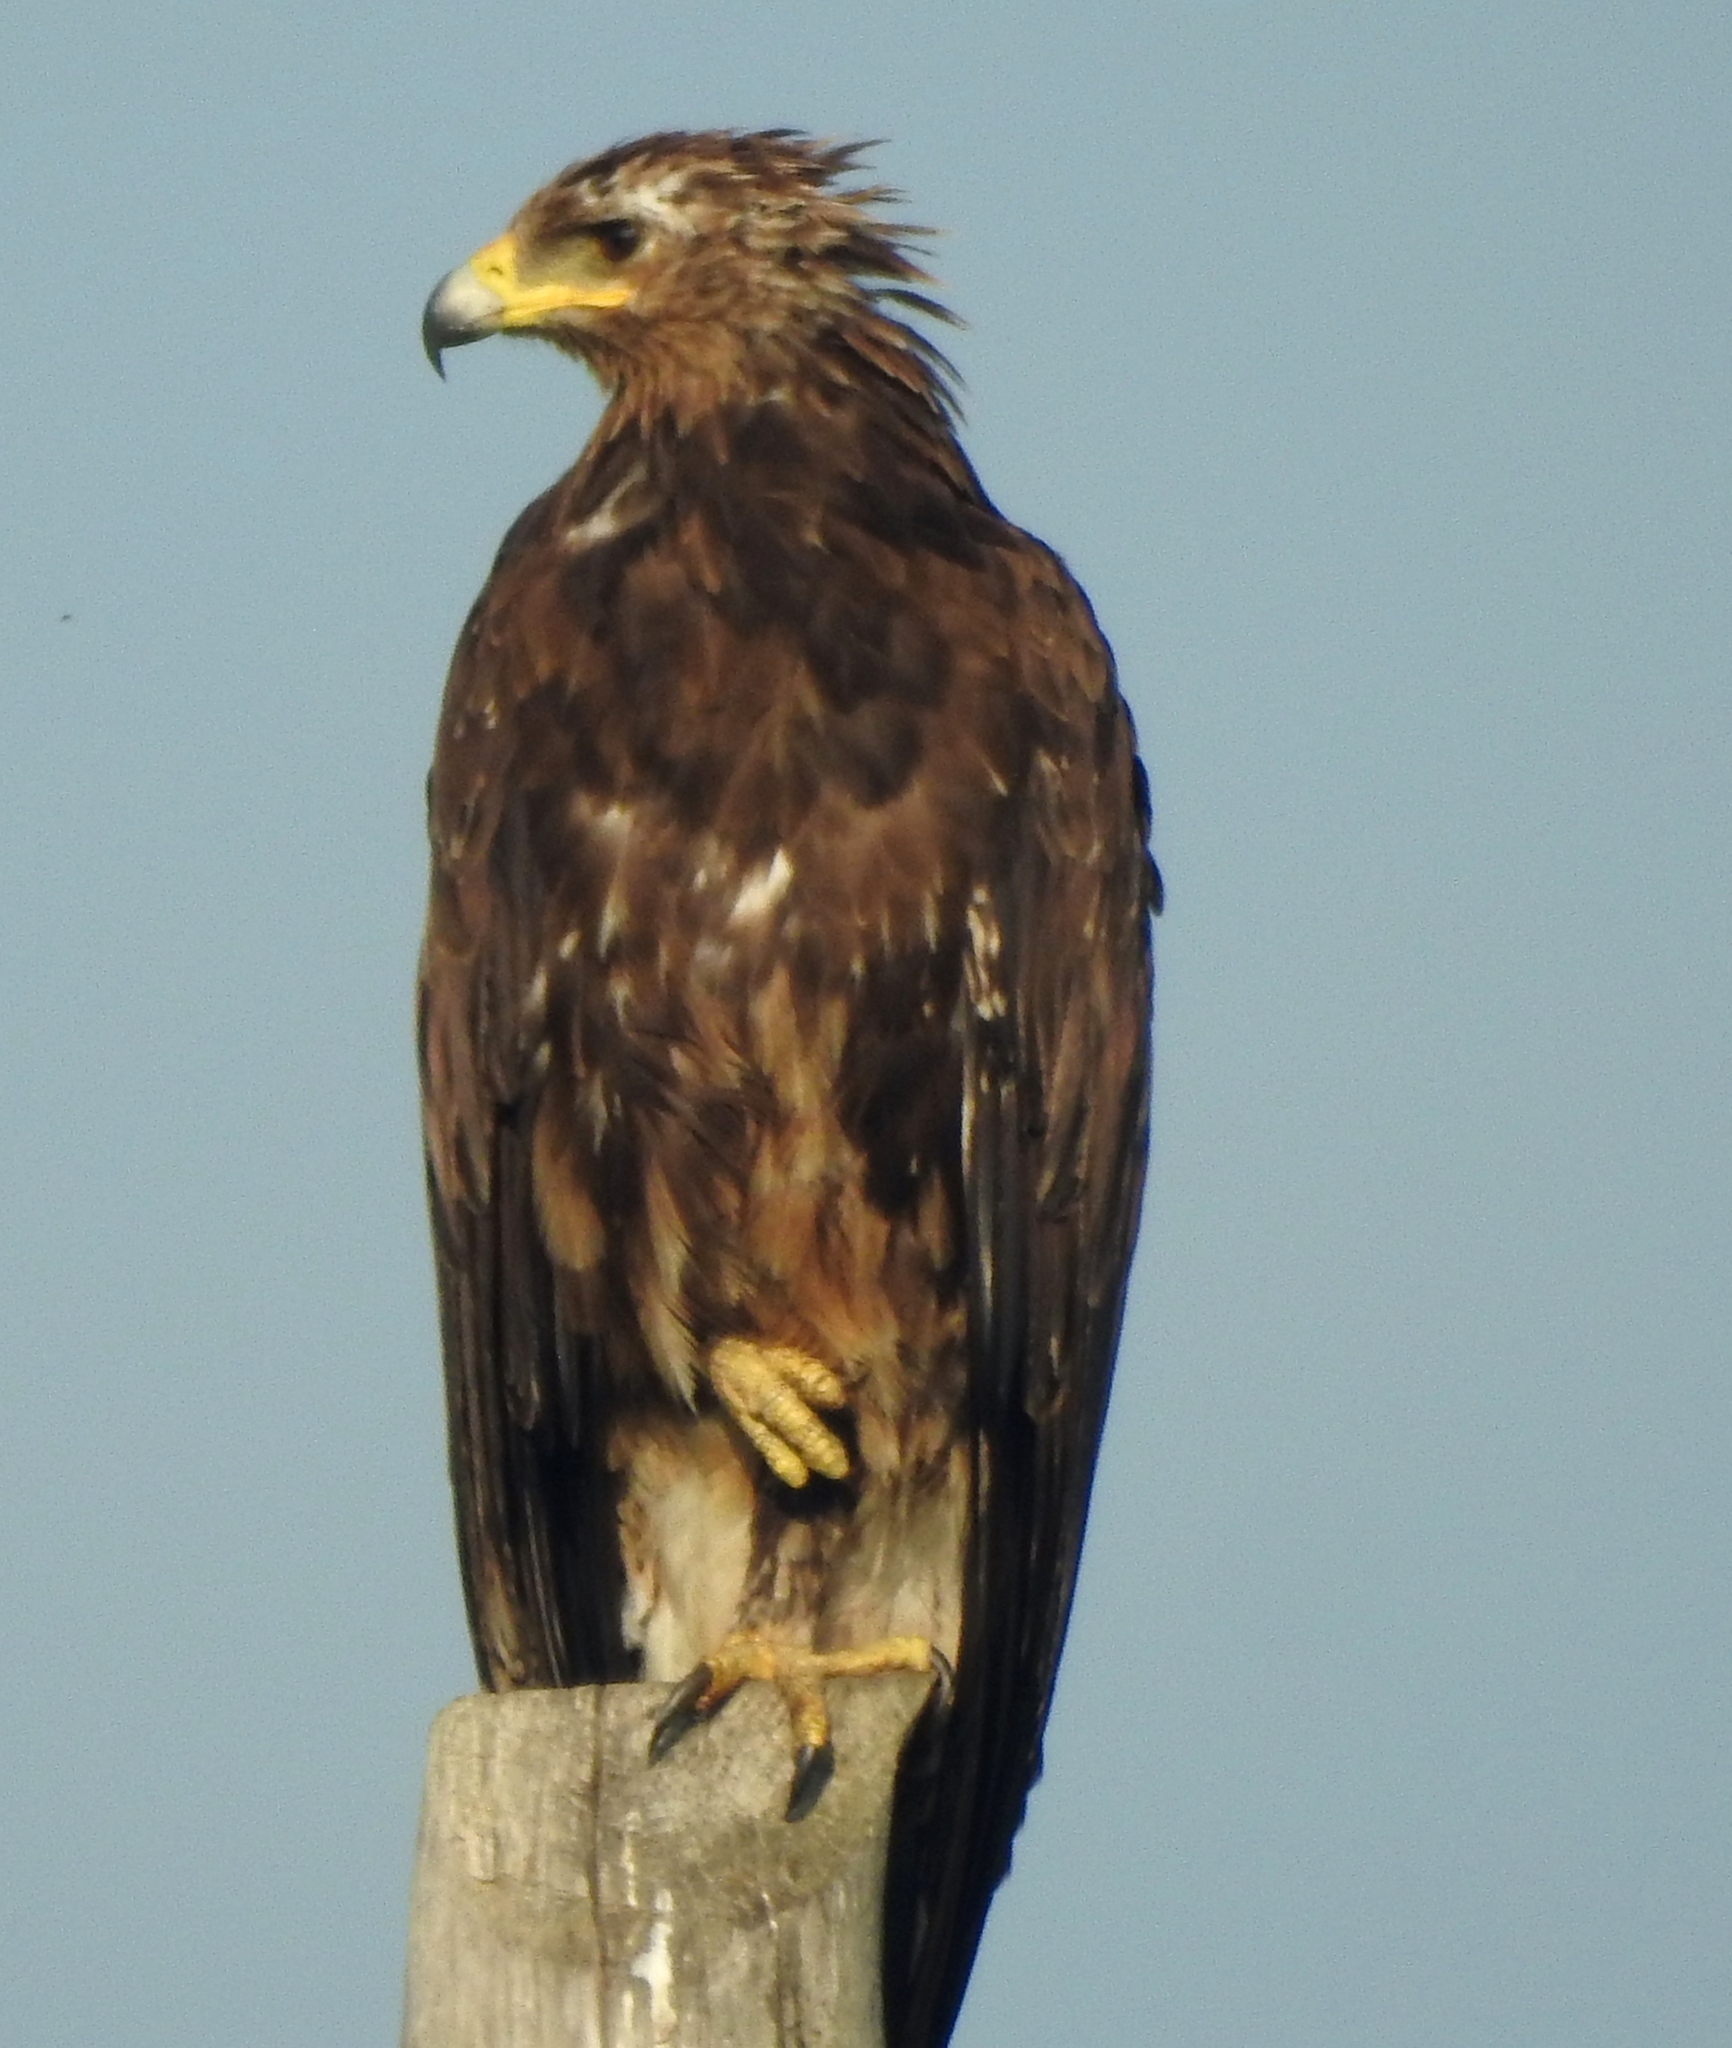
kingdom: Animalia
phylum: Chordata
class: Aves
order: Accipitriformes
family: Accipitridae
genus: Aquila
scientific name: Aquila clanga
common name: Greater spotted eagle
